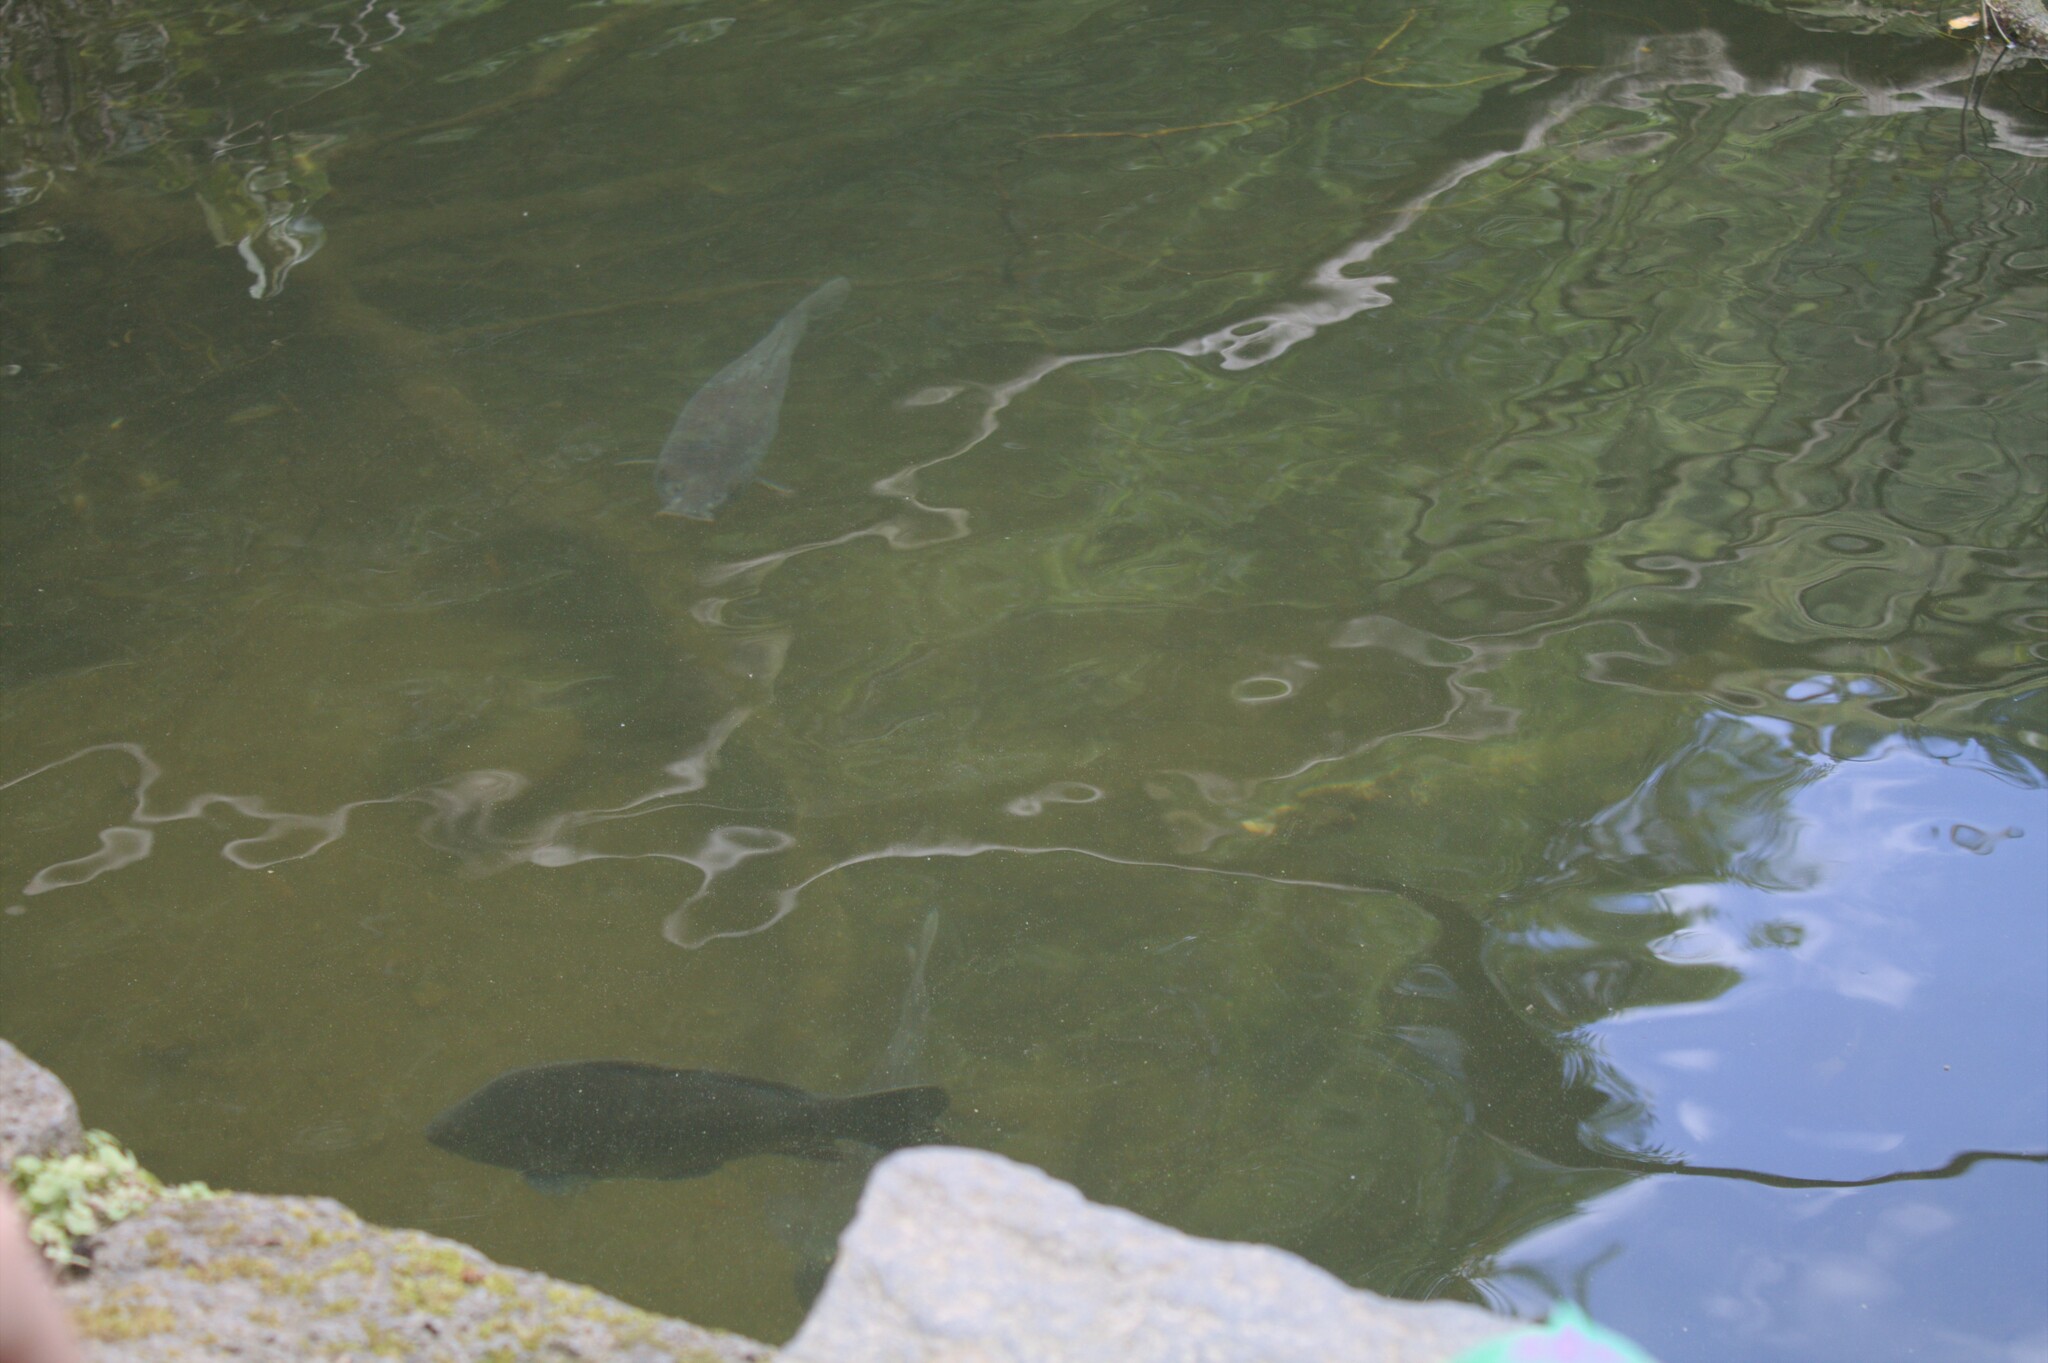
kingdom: Animalia
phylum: Chordata
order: Cypriniformes
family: Cyprinidae
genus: Cyprinus
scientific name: Cyprinus carpio
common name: Common carp
